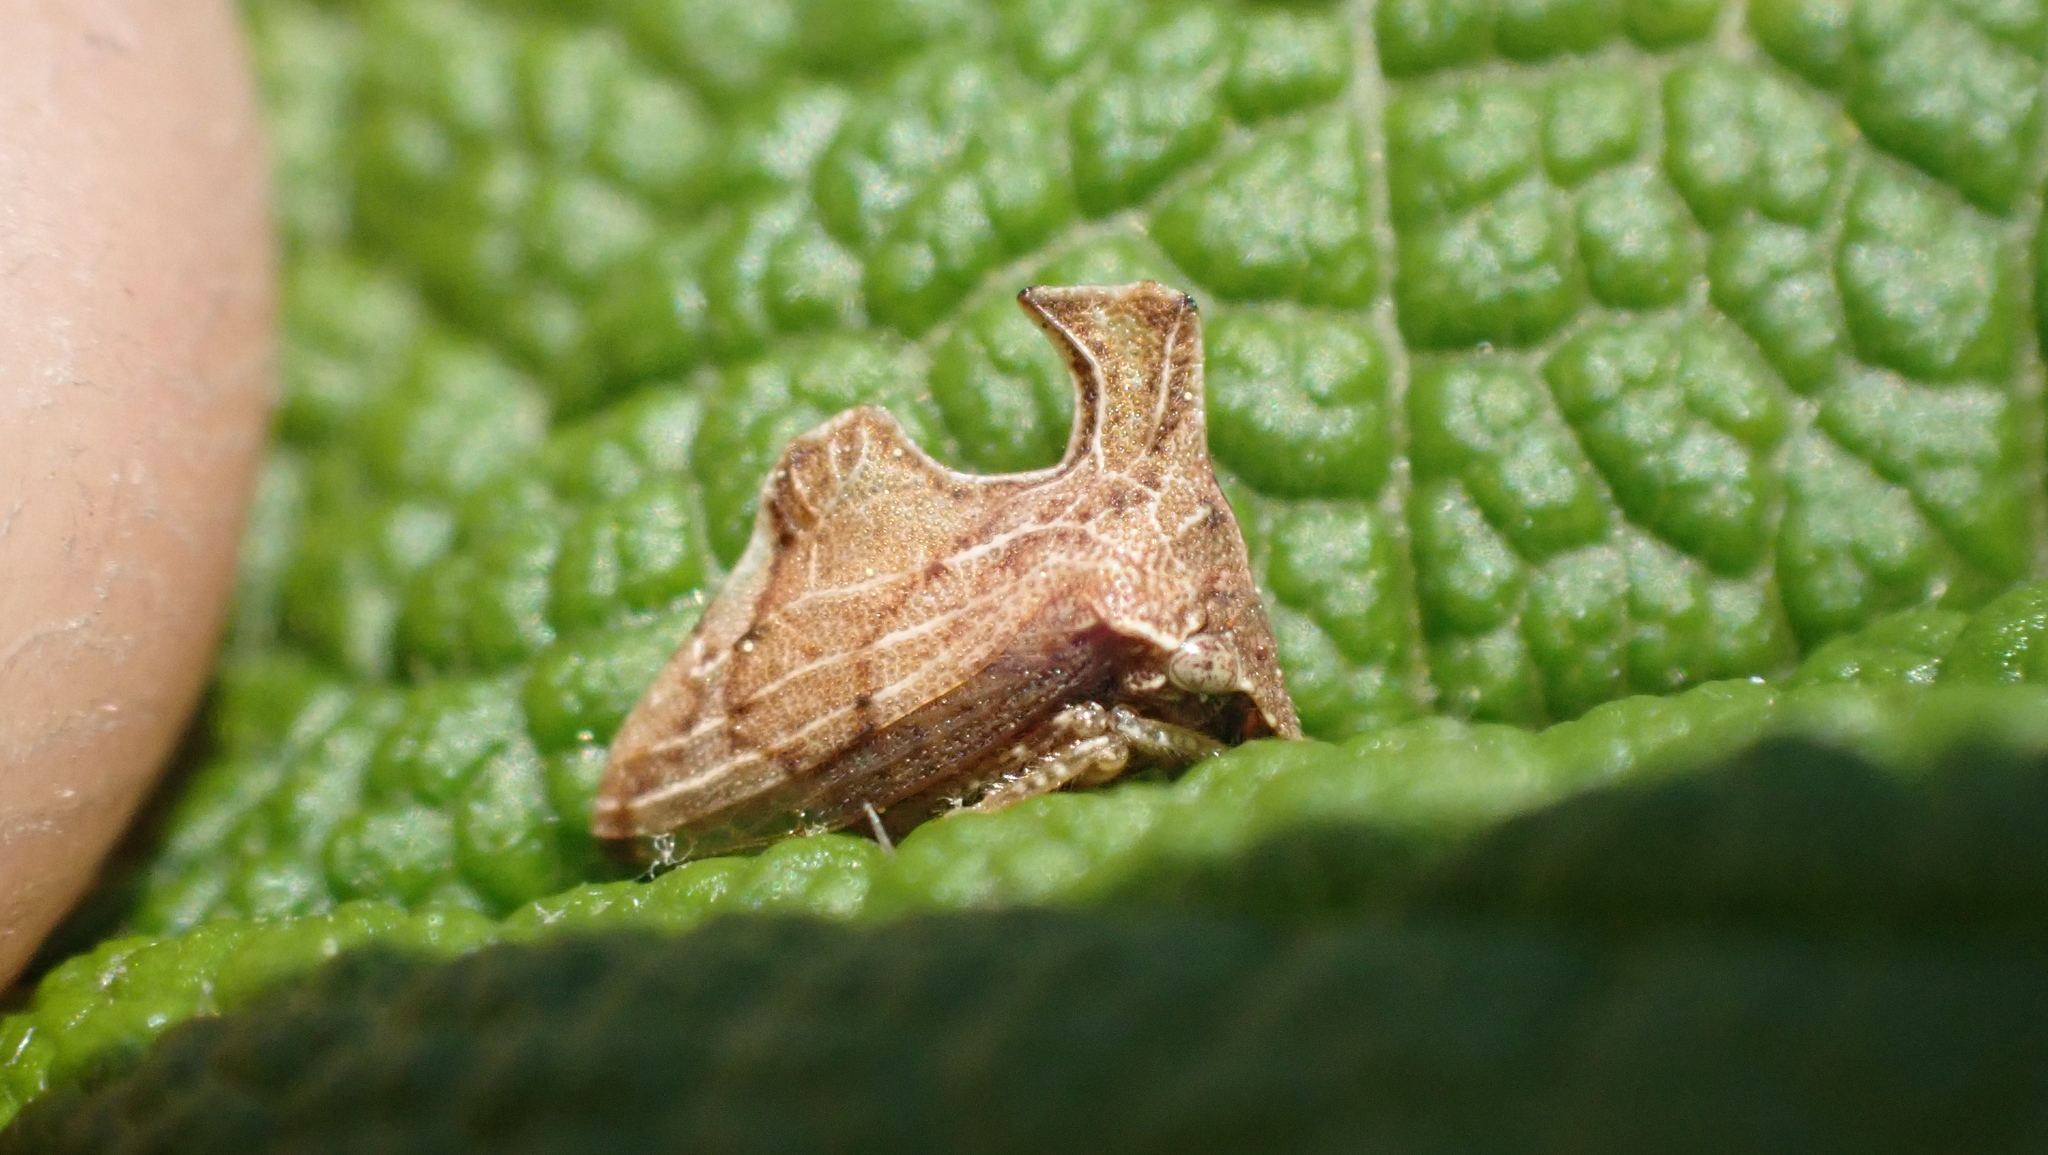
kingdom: Animalia
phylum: Arthropoda
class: Insecta
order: Hemiptera
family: Membracidae
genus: Entylia
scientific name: Entylia carinata
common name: Keeled treehopper
